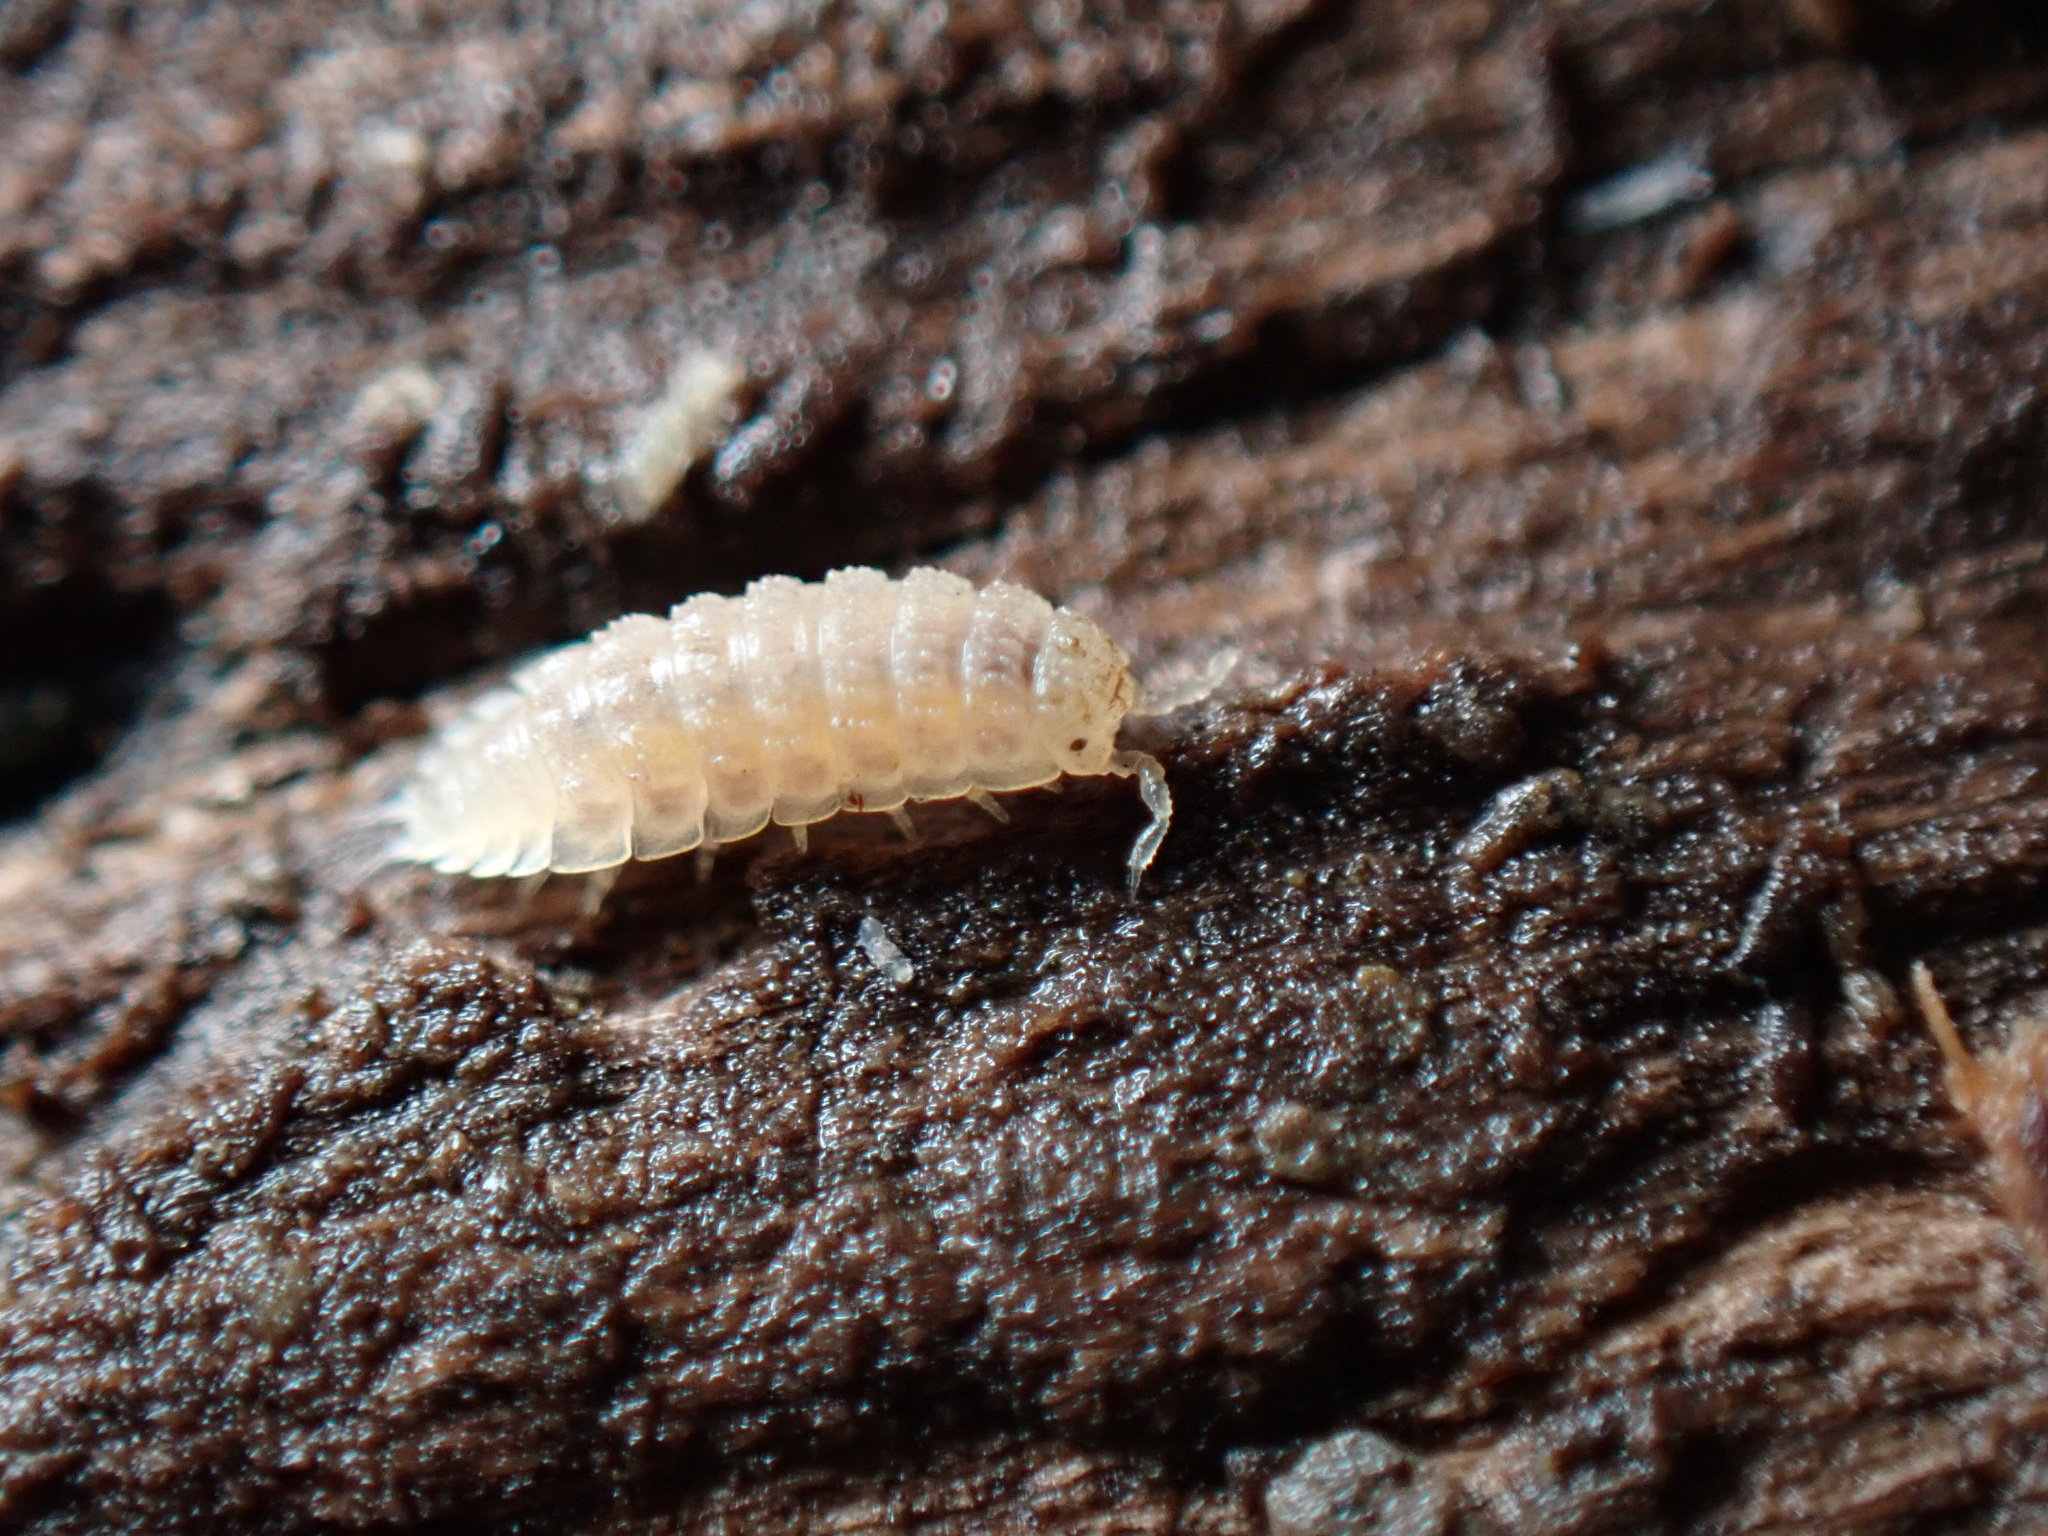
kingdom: Animalia
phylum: Arthropoda
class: Malacostraca
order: Isopoda
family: Trichoniscidae
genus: Haplophthalmus
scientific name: Haplophthalmus danicus
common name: Pillbug
